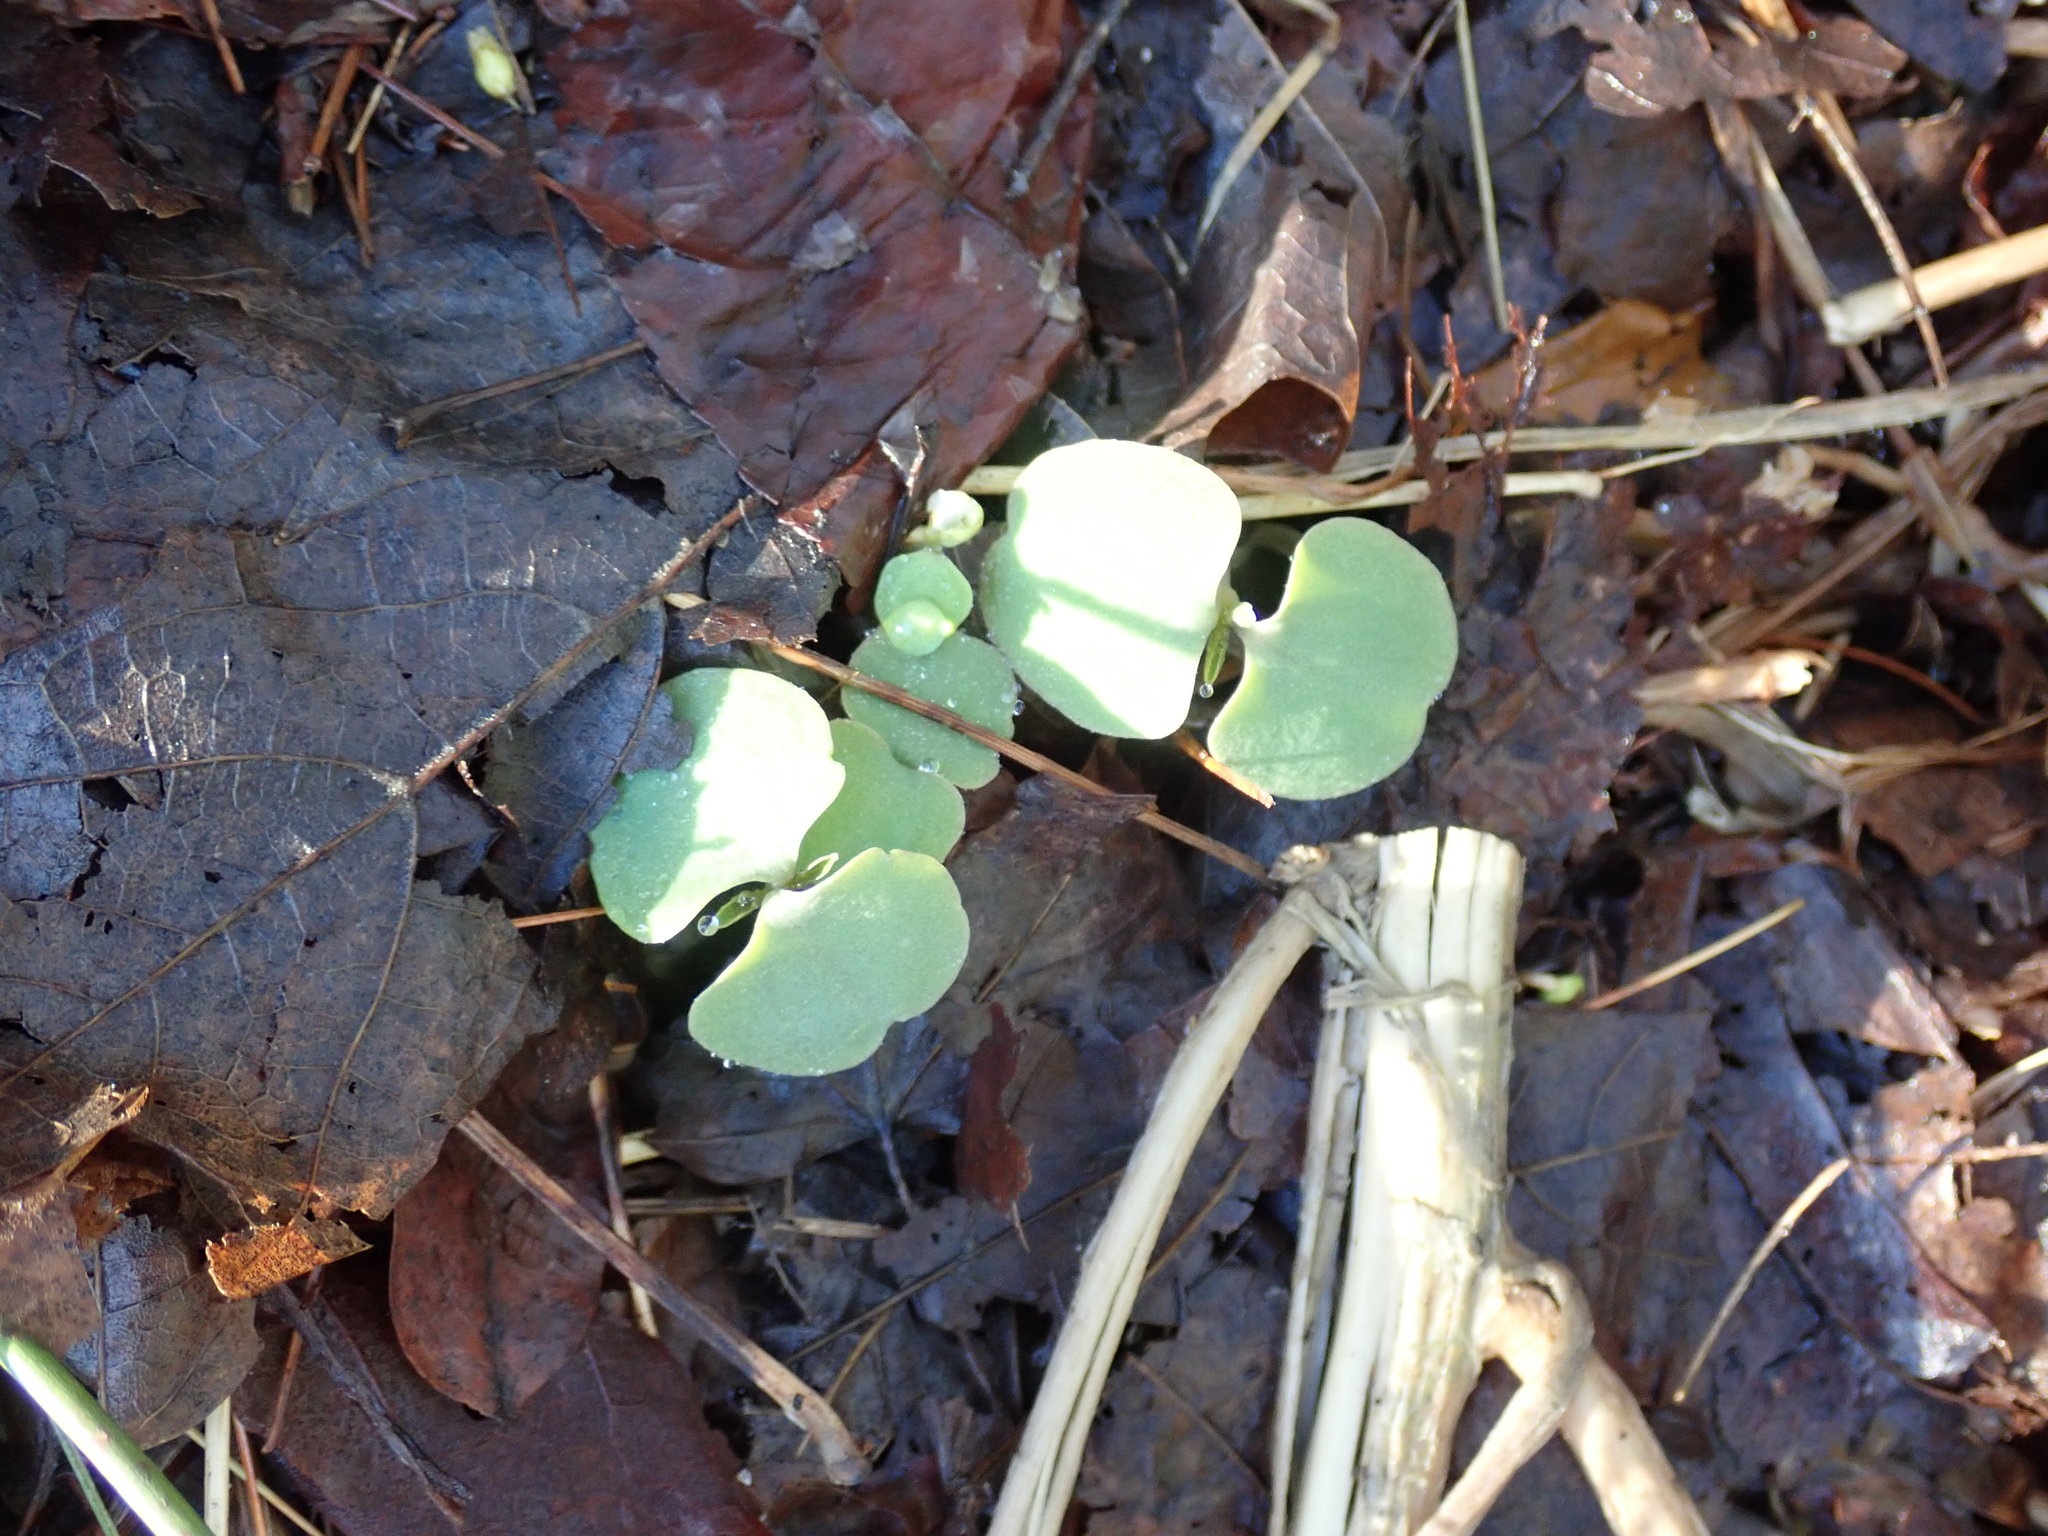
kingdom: Plantae
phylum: Tracheophyta
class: Magnoliopsida
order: Ericales
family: Balsaminaceae
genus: Impatiens
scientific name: Impatiens
